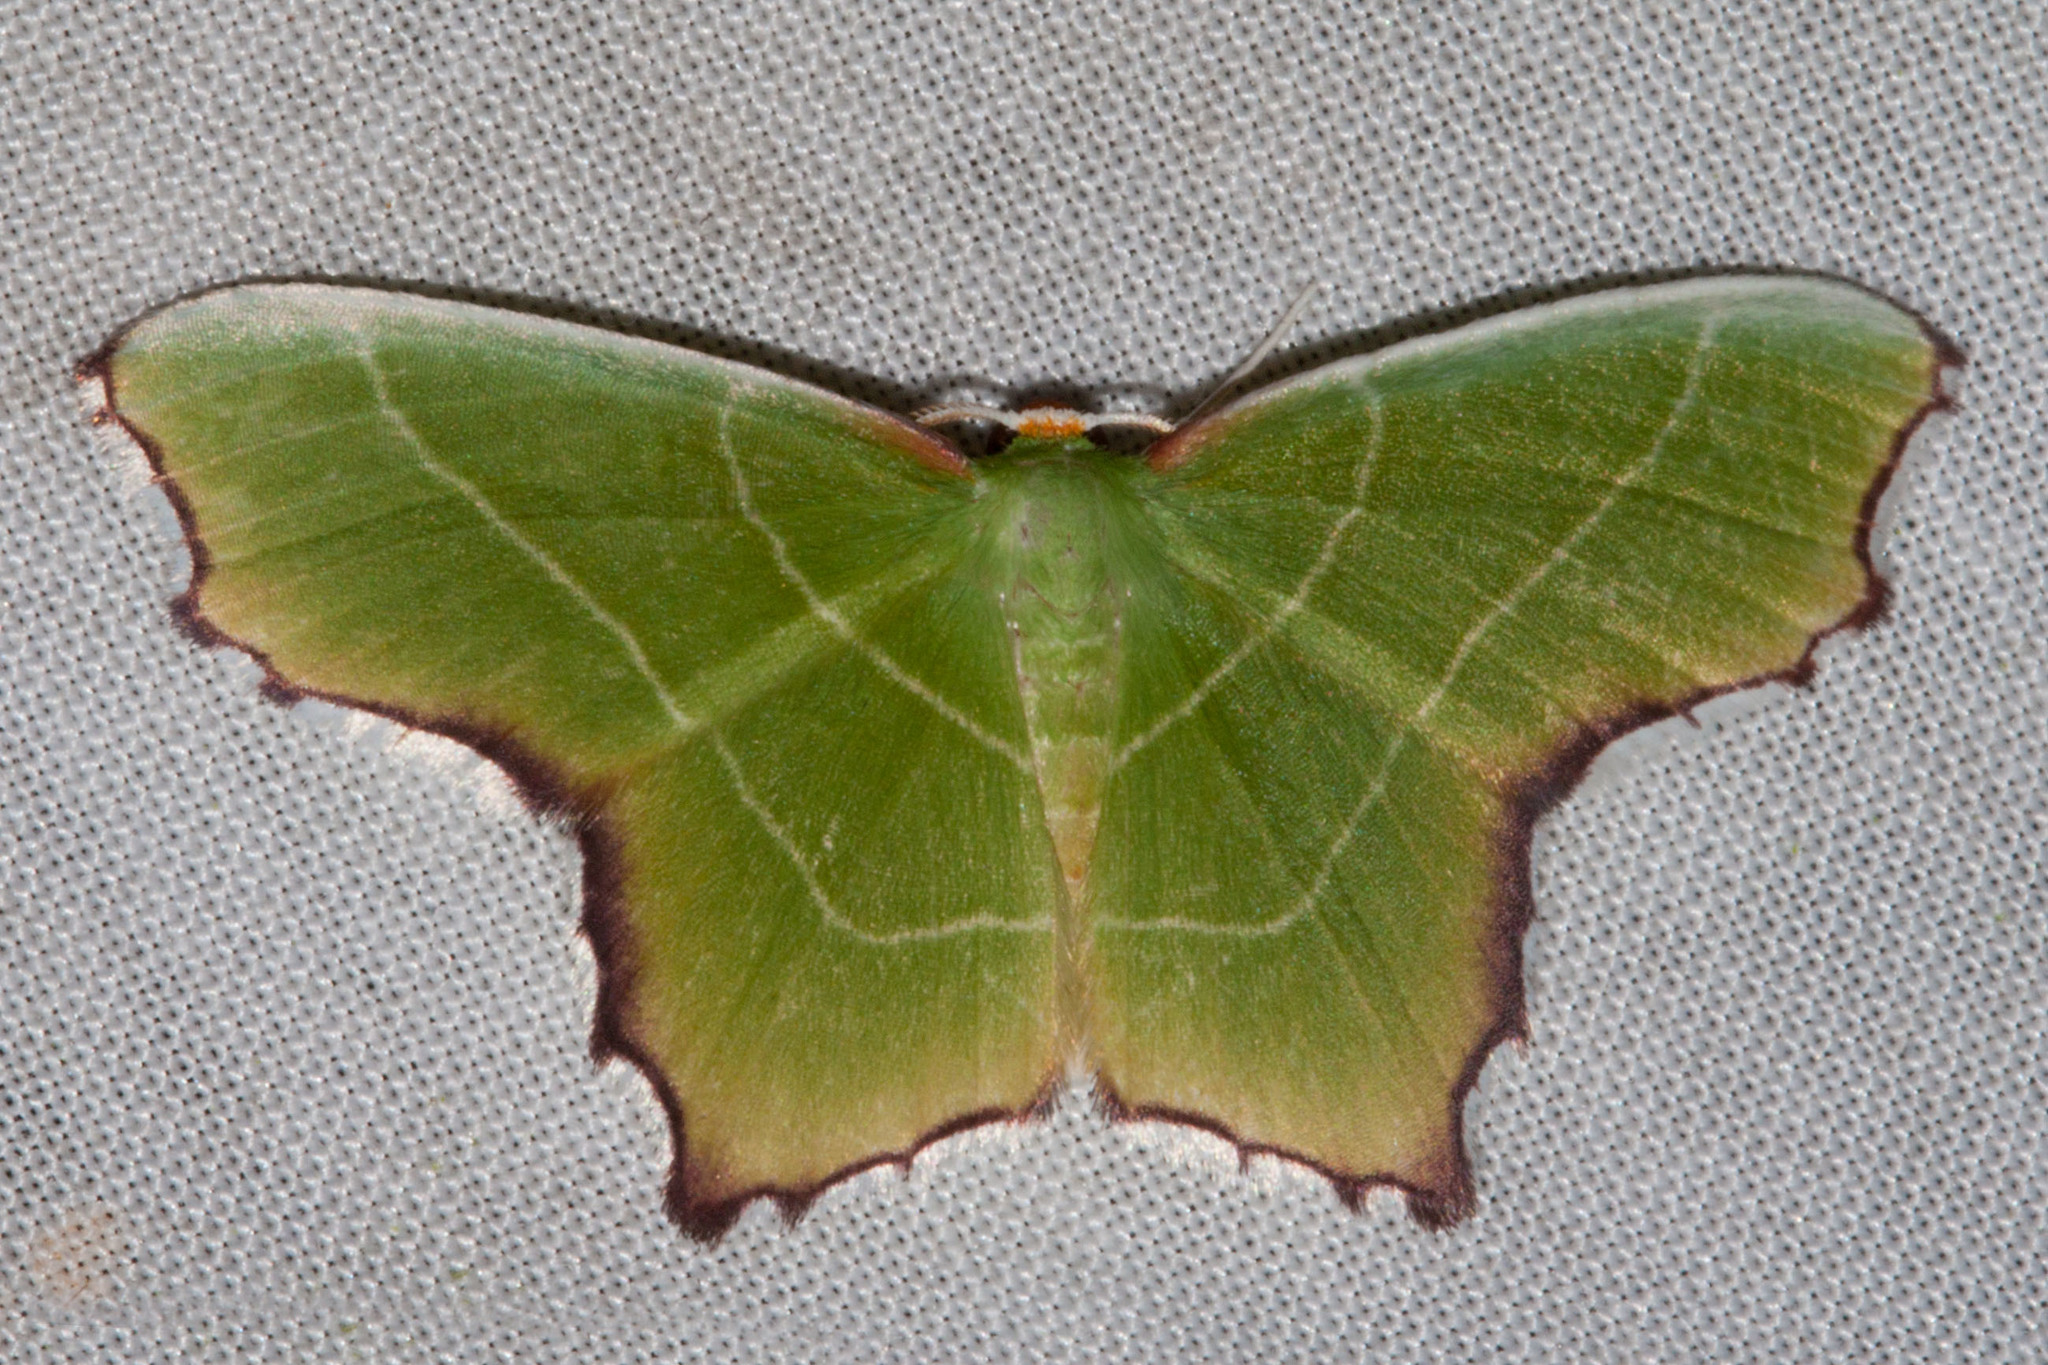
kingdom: Animalia
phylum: Arthropoda
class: Insecta
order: Lepidoptera
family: Geometridae
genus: Poecilochlora
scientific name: Poecilochlora minor
